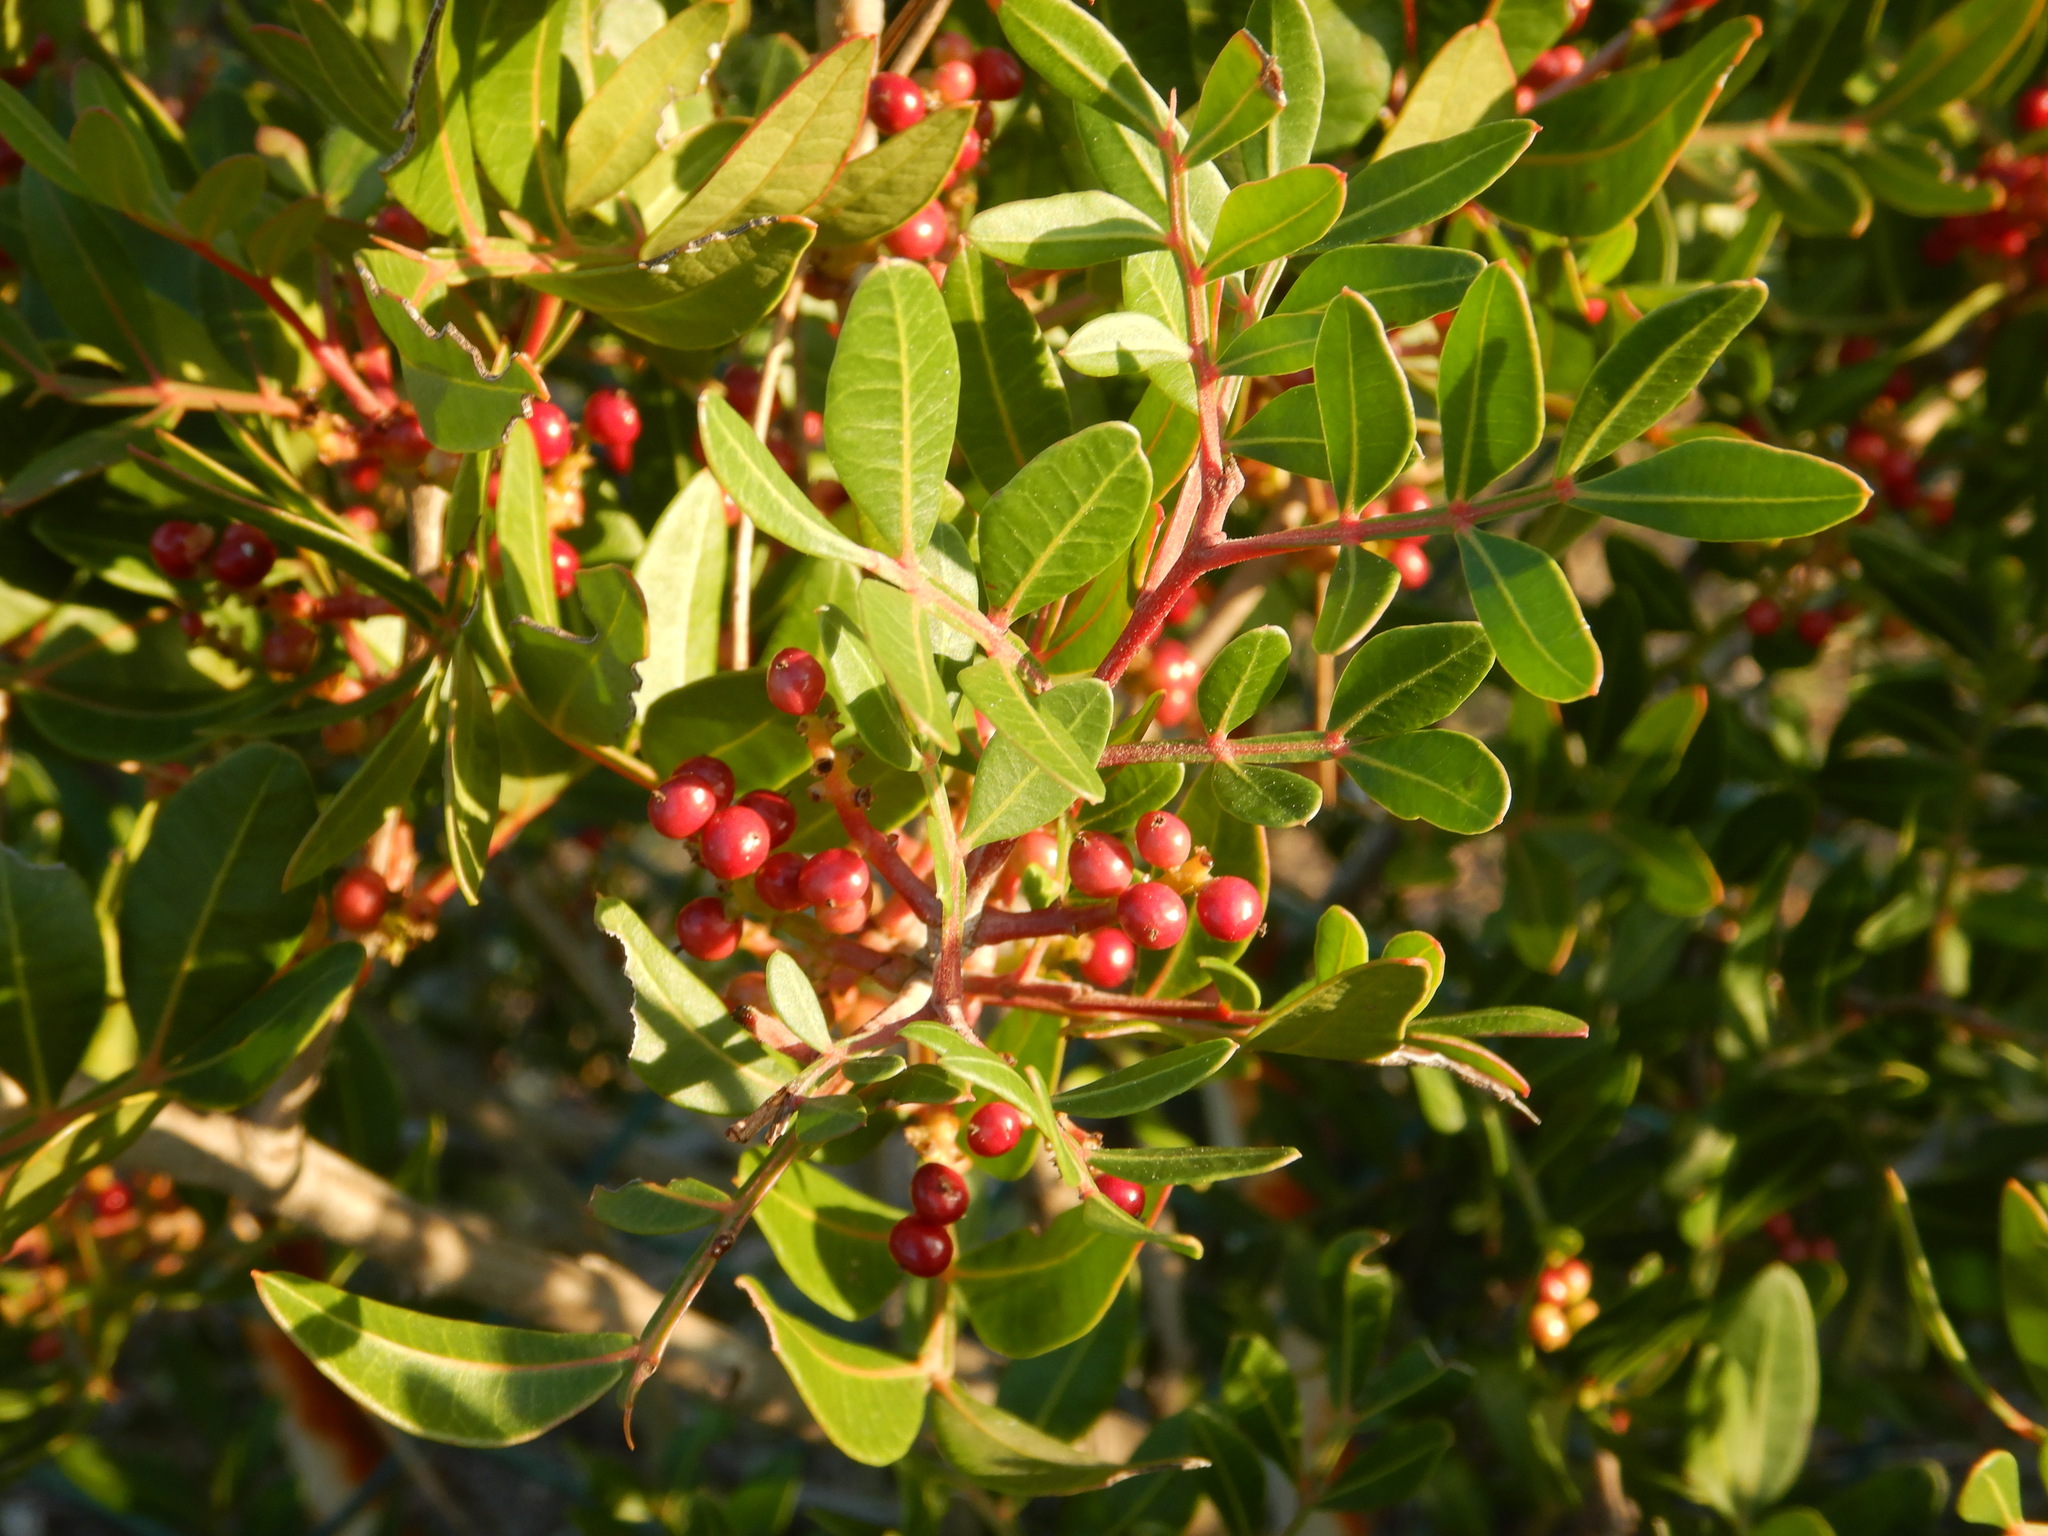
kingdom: Plantae
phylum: Tracheophyta
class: Magnoliopsida
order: Sapindales
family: Anacardiaceae
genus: Pistacia
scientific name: Pistacia lentiscus
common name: Lentisk
